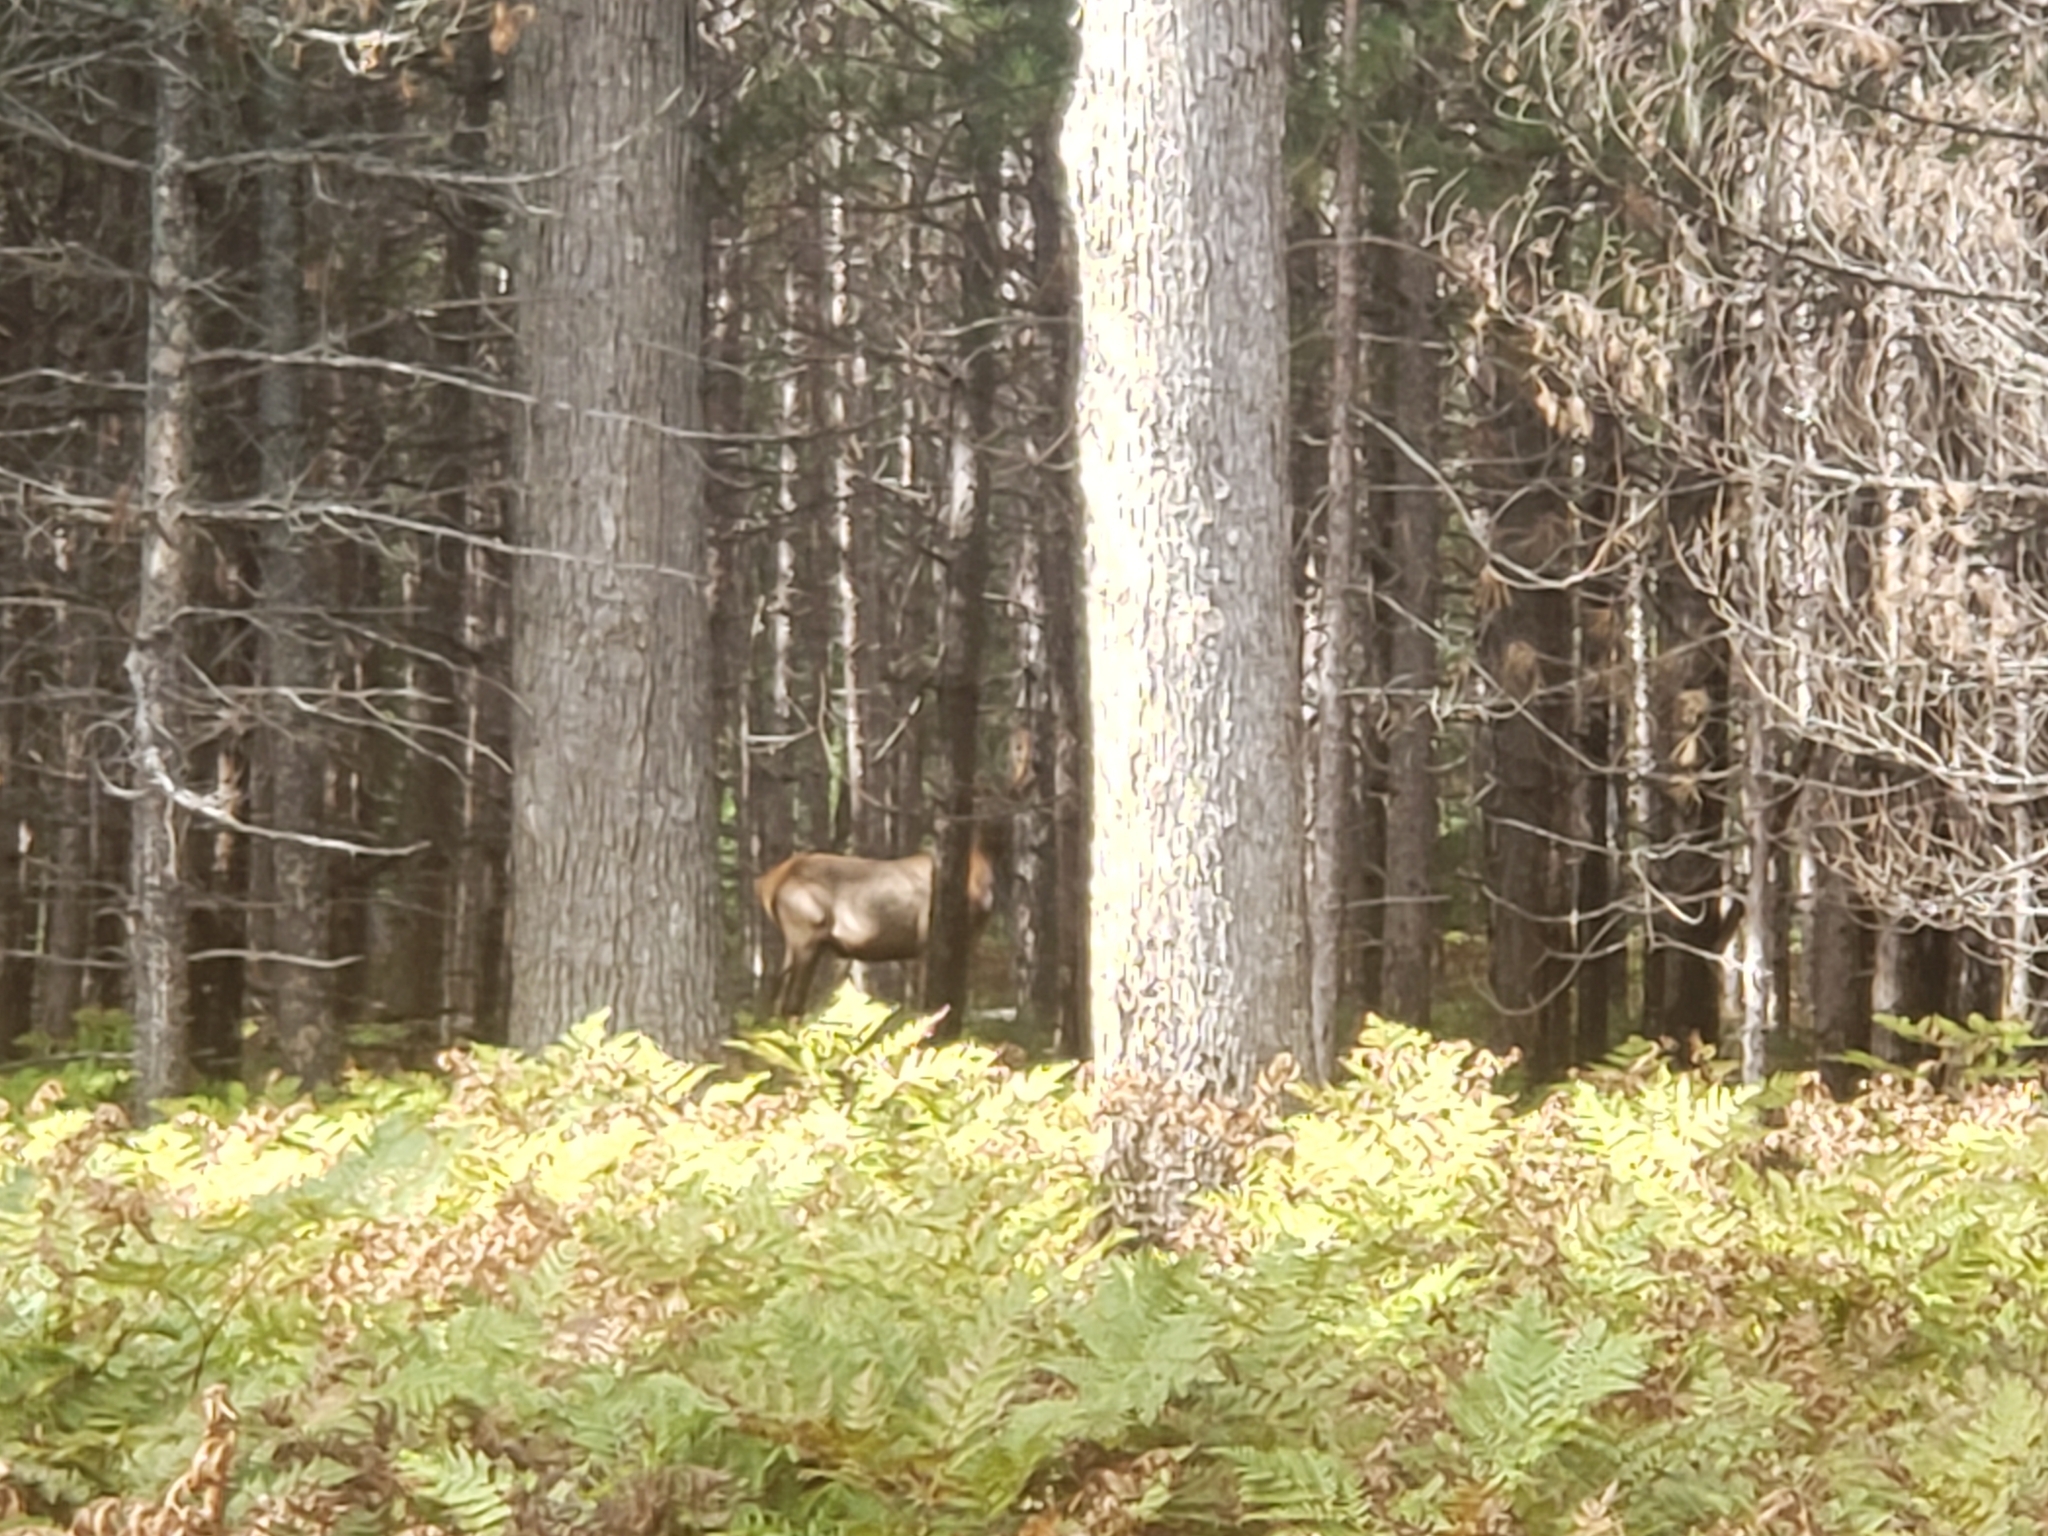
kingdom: Animalia
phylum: Chordata
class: Mammalia
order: Artiodactyla
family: Cervidae
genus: Cervus
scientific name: Cervus elaphus
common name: Red deer
